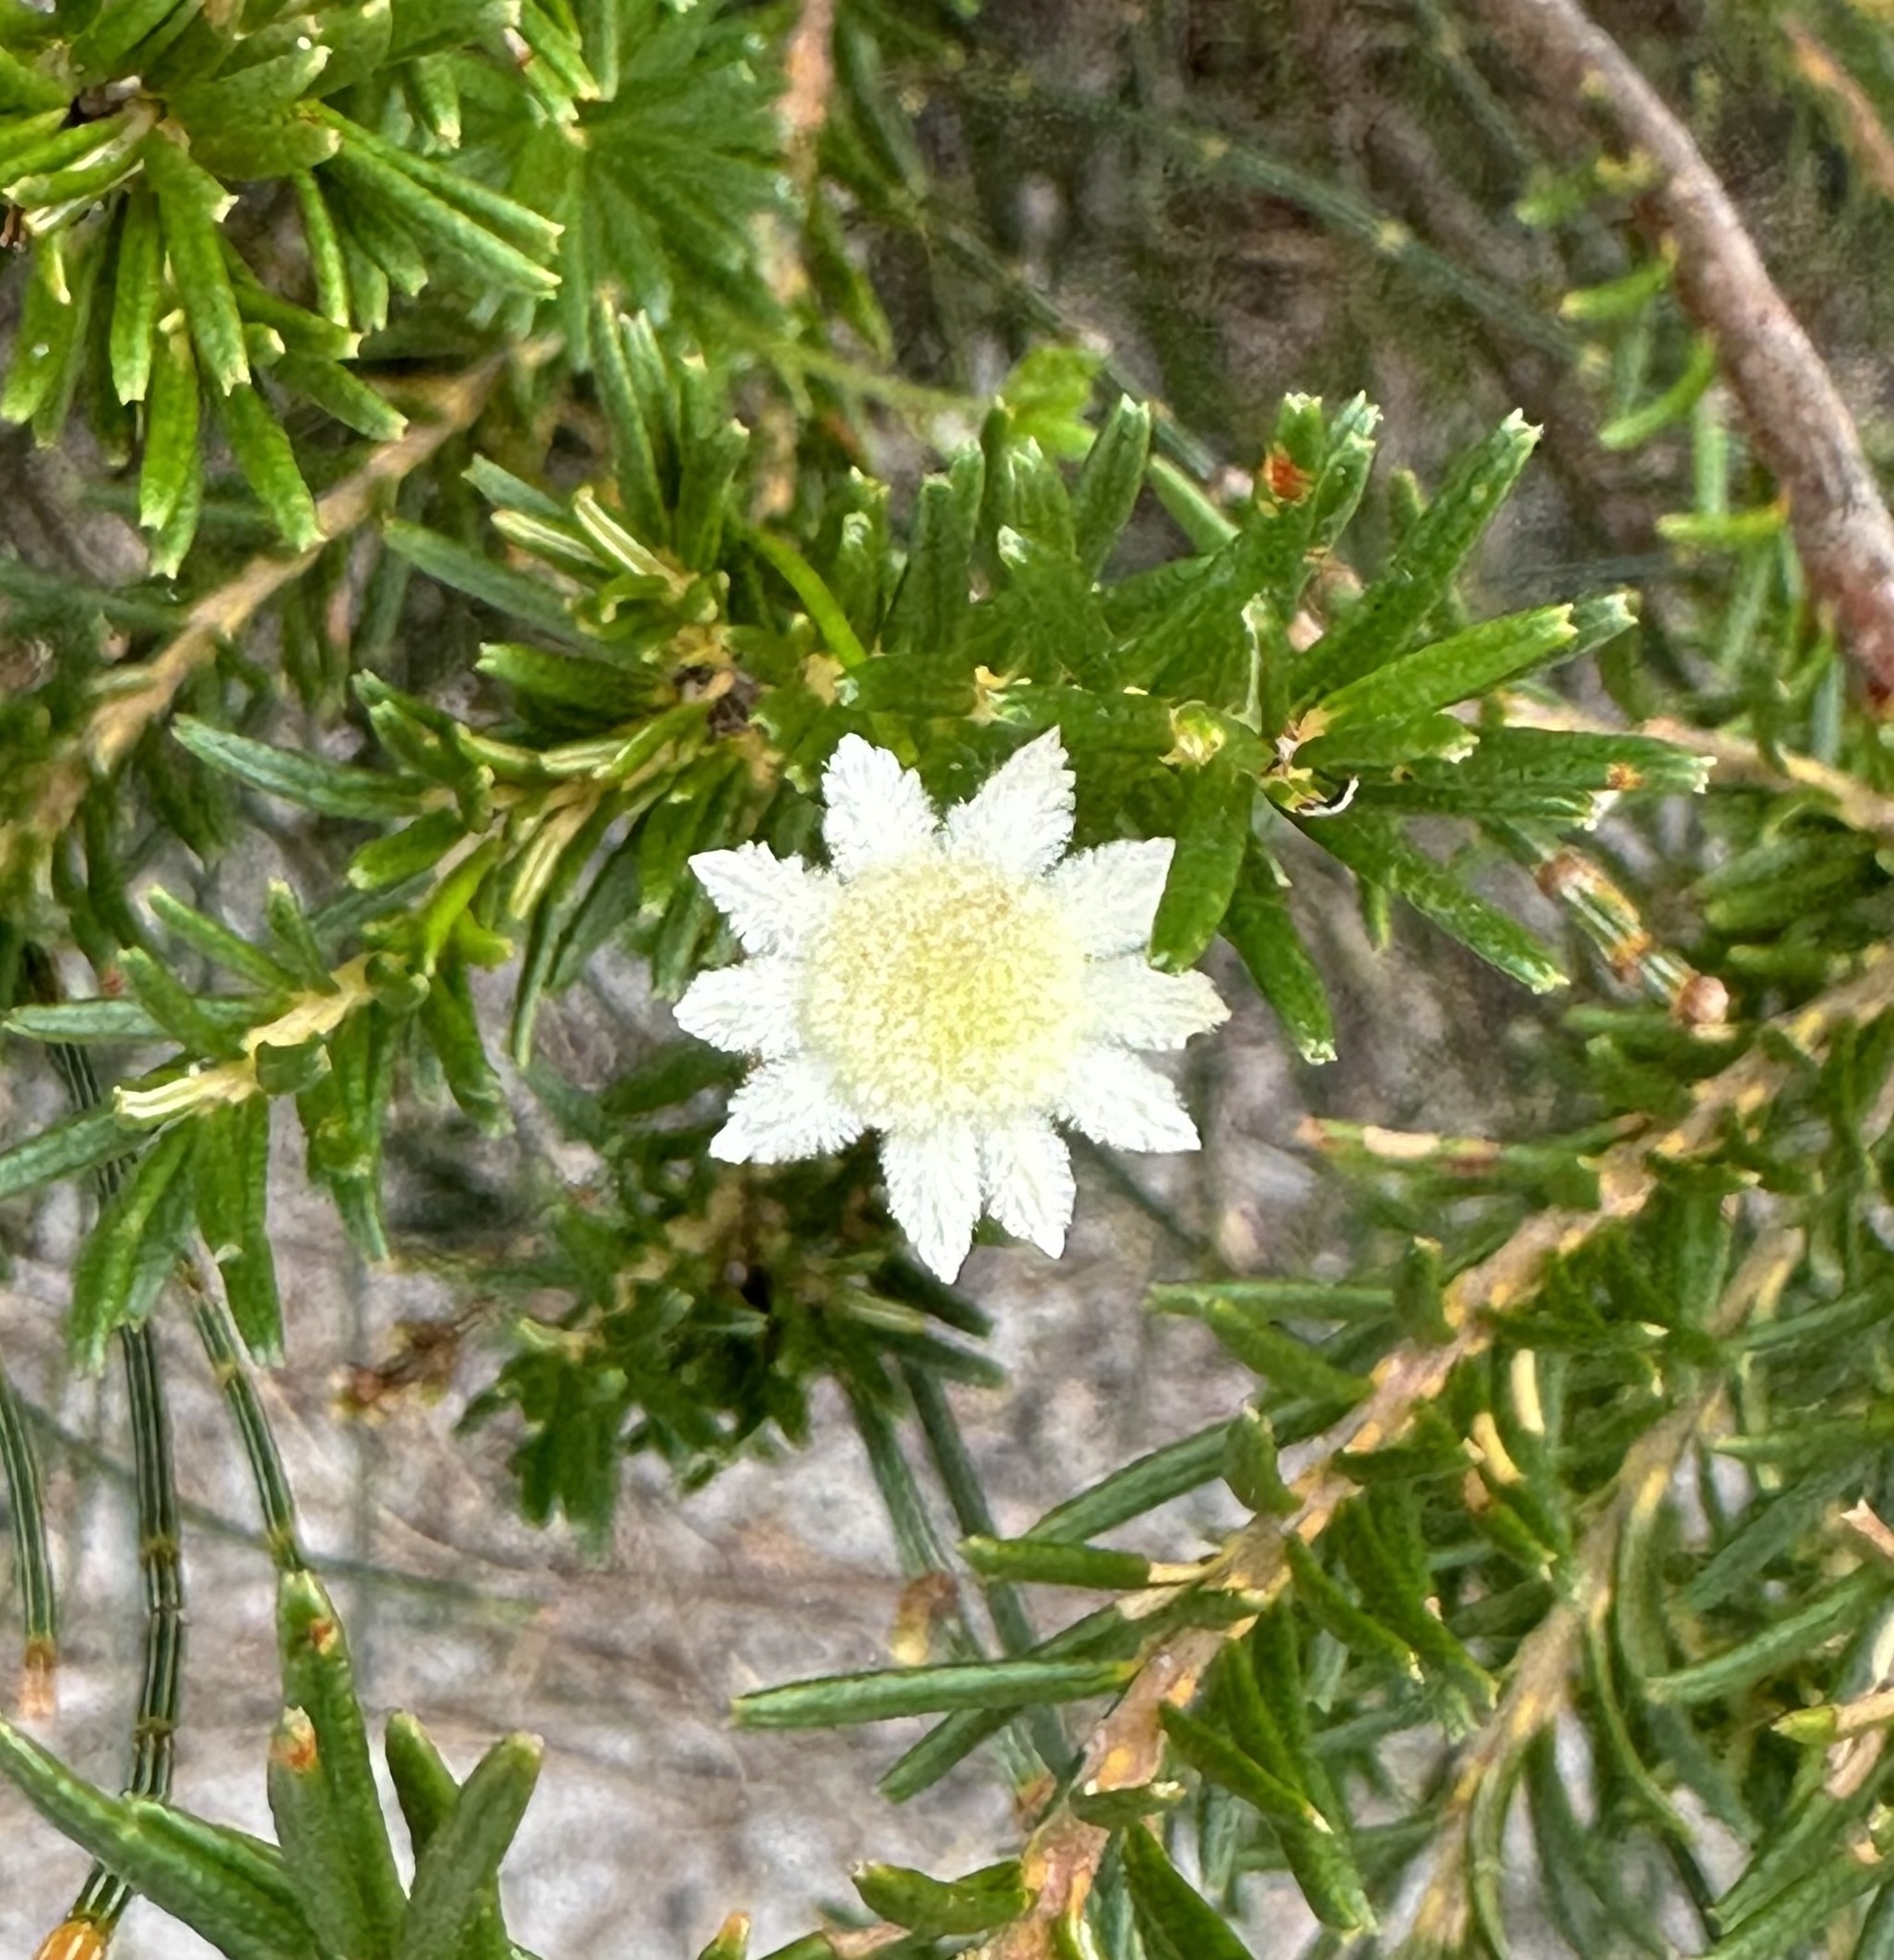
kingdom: Plantae
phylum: Tracheophyta
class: Magnoliopsida
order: Apiales
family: Apiaceae
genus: Actinotus
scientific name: Actinotus minor
